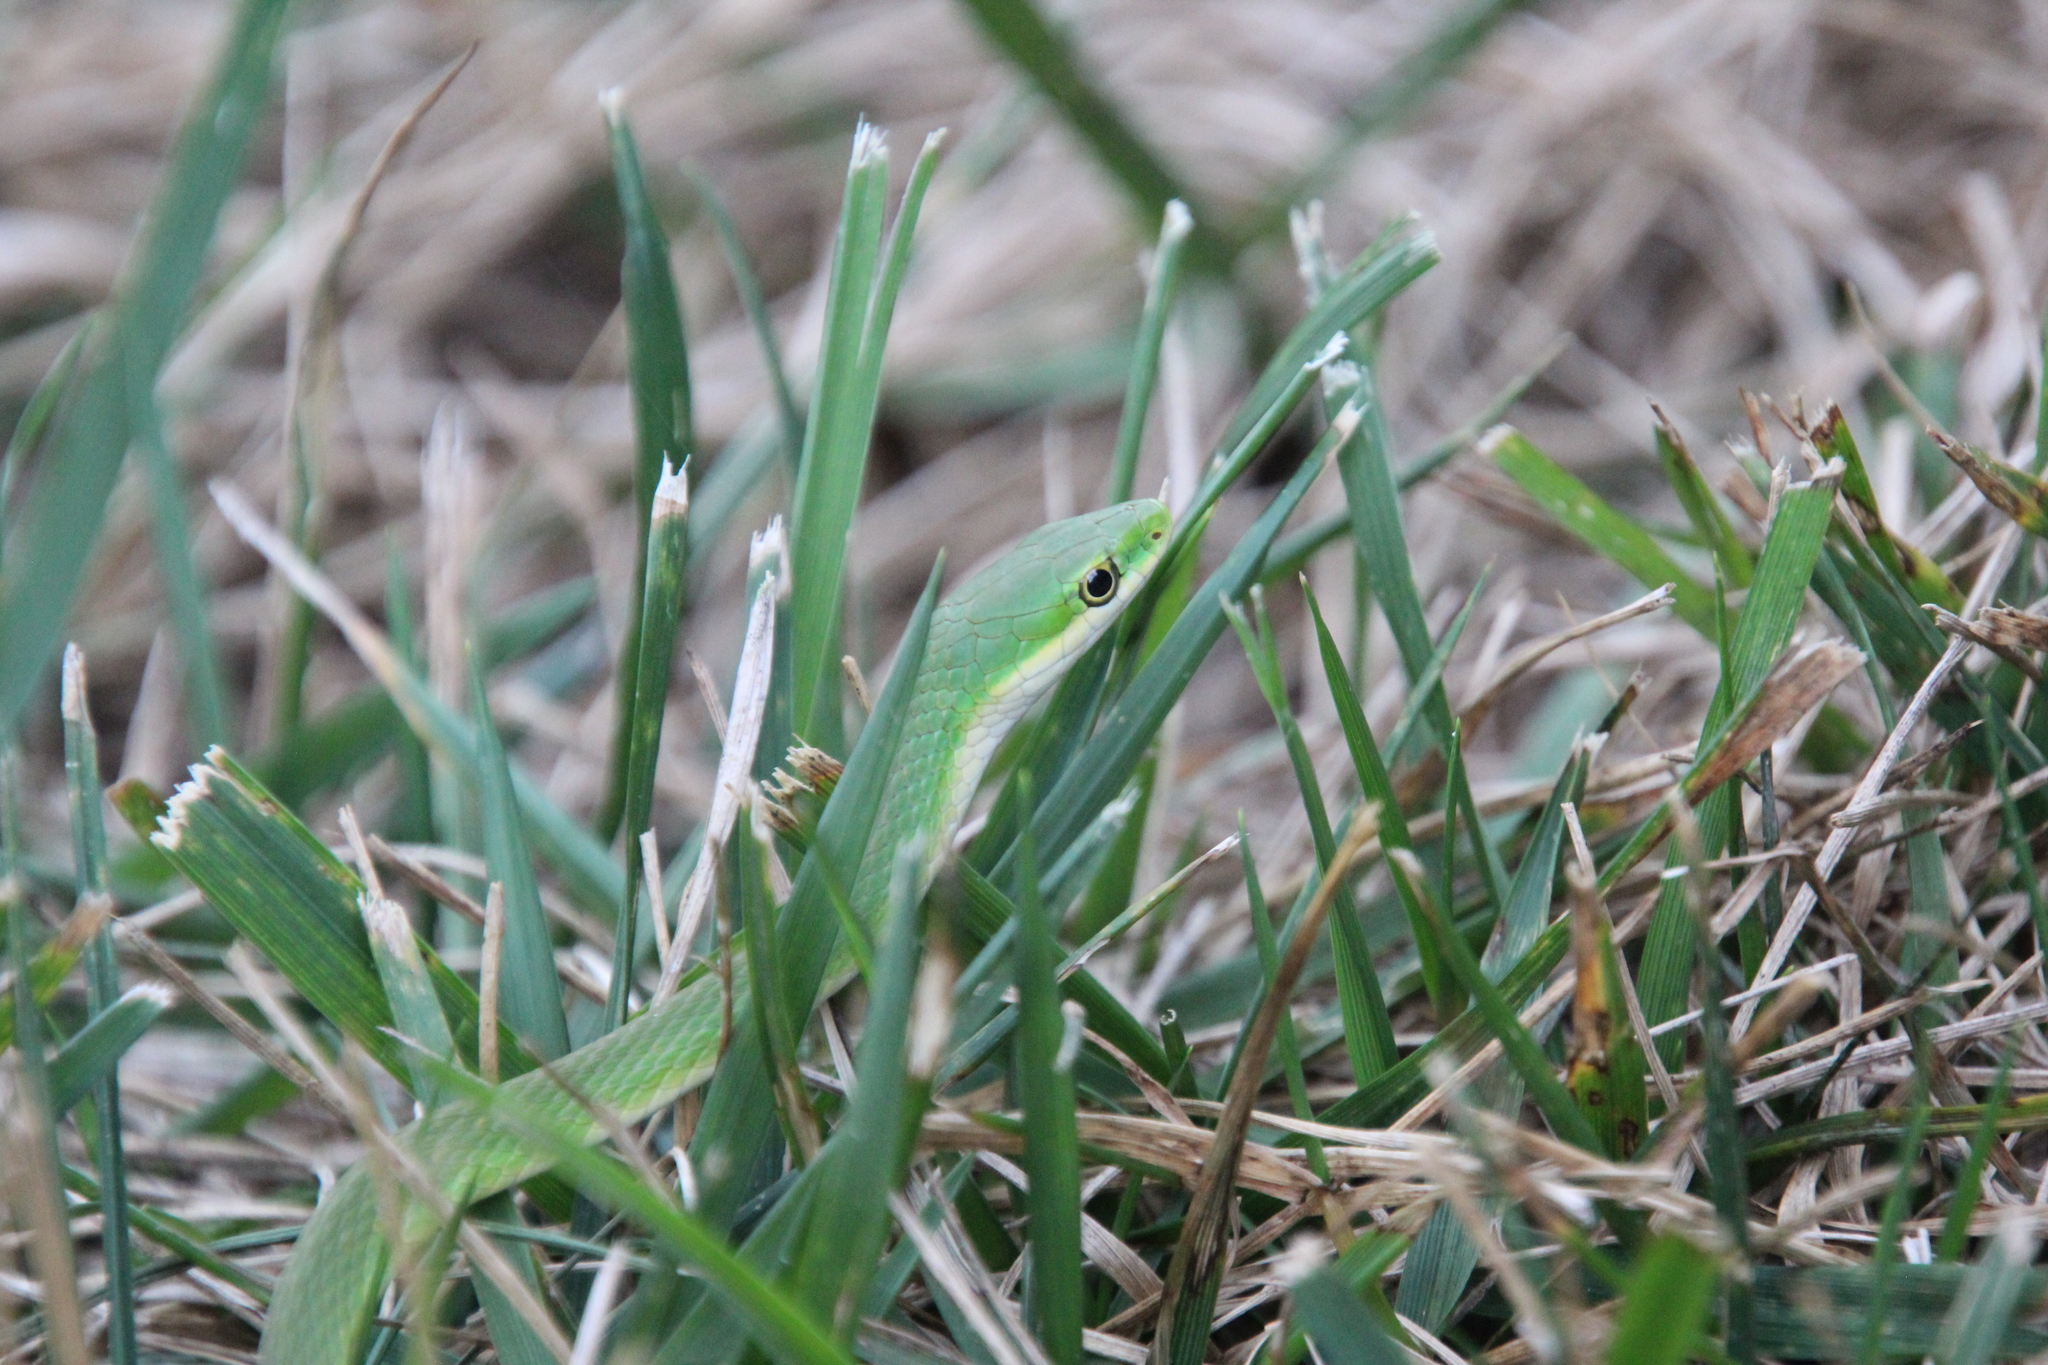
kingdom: Animalia
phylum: Chordata
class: Squamata
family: Colubridae
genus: Opheodrys
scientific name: Opheodrys aestivus
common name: Rough greensnake
